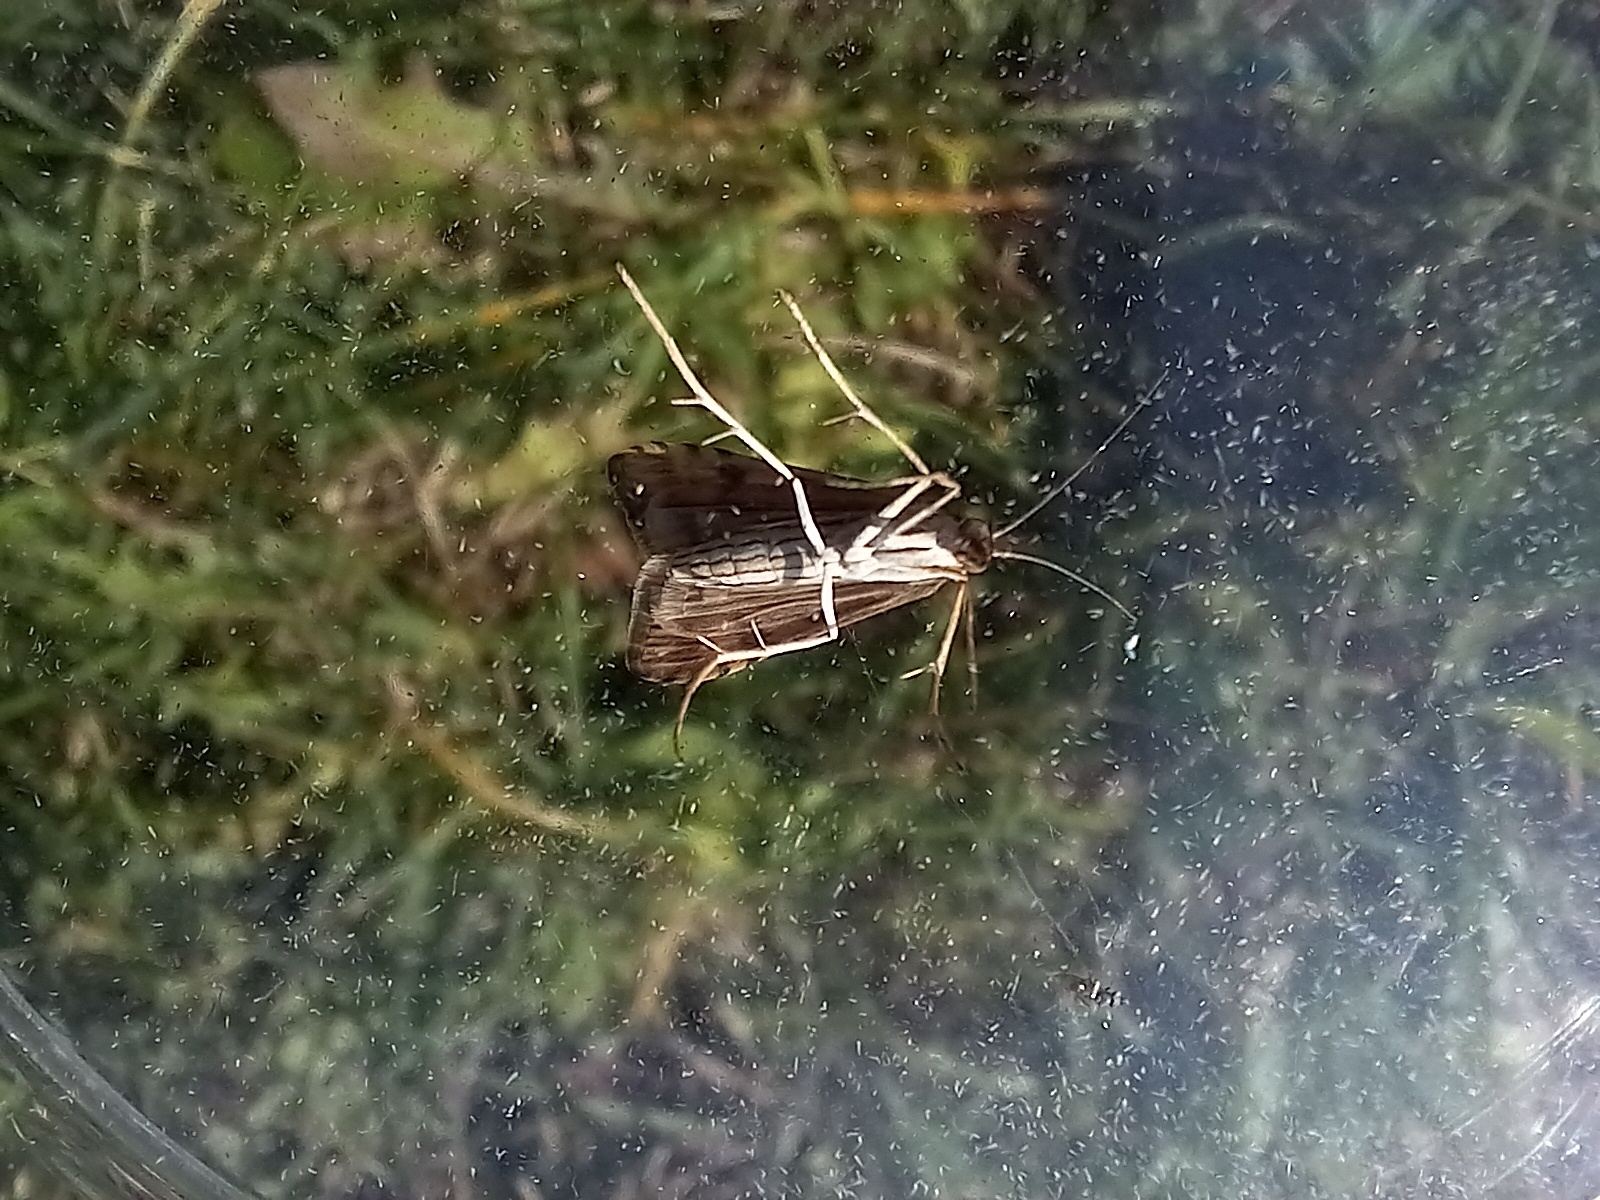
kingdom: Animalia
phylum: Arthropoda
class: Insecta
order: Lepidoptera
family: Crambidae
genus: Nomophila
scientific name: Nomophila noctuella
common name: Rush veneer
